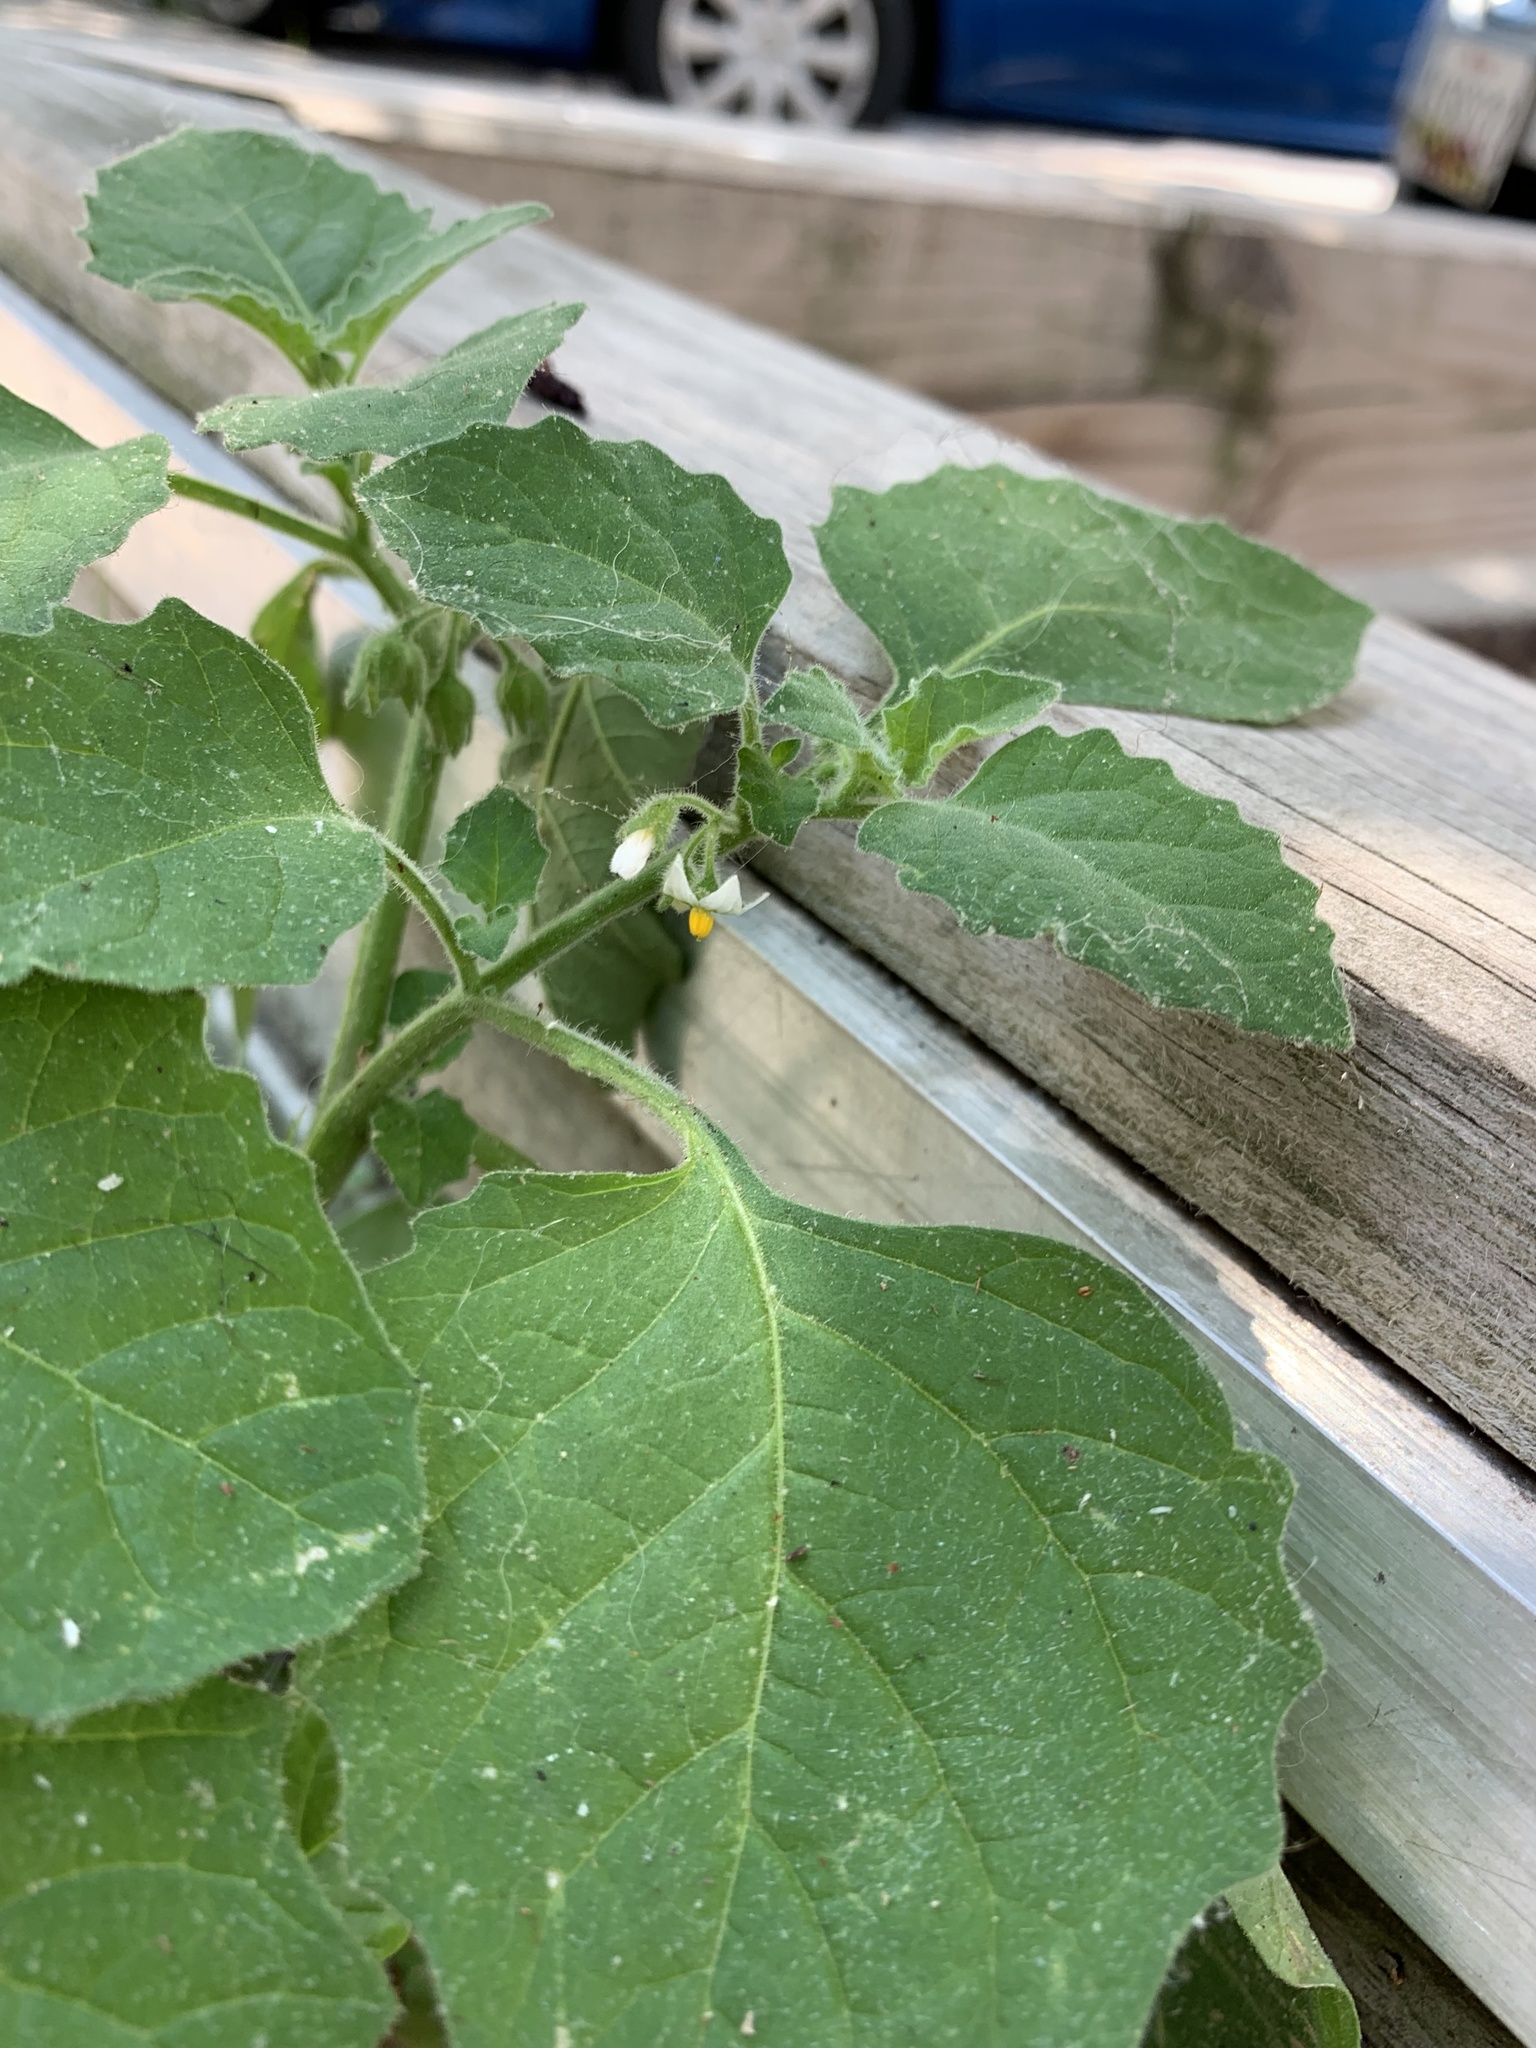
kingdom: Plantae
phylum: Tracheophyta
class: Magnoliopsida
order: Solanales
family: Solanaceae
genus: Solanum
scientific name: Solanum sarrachoides
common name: Leafy-fruited nightshade
